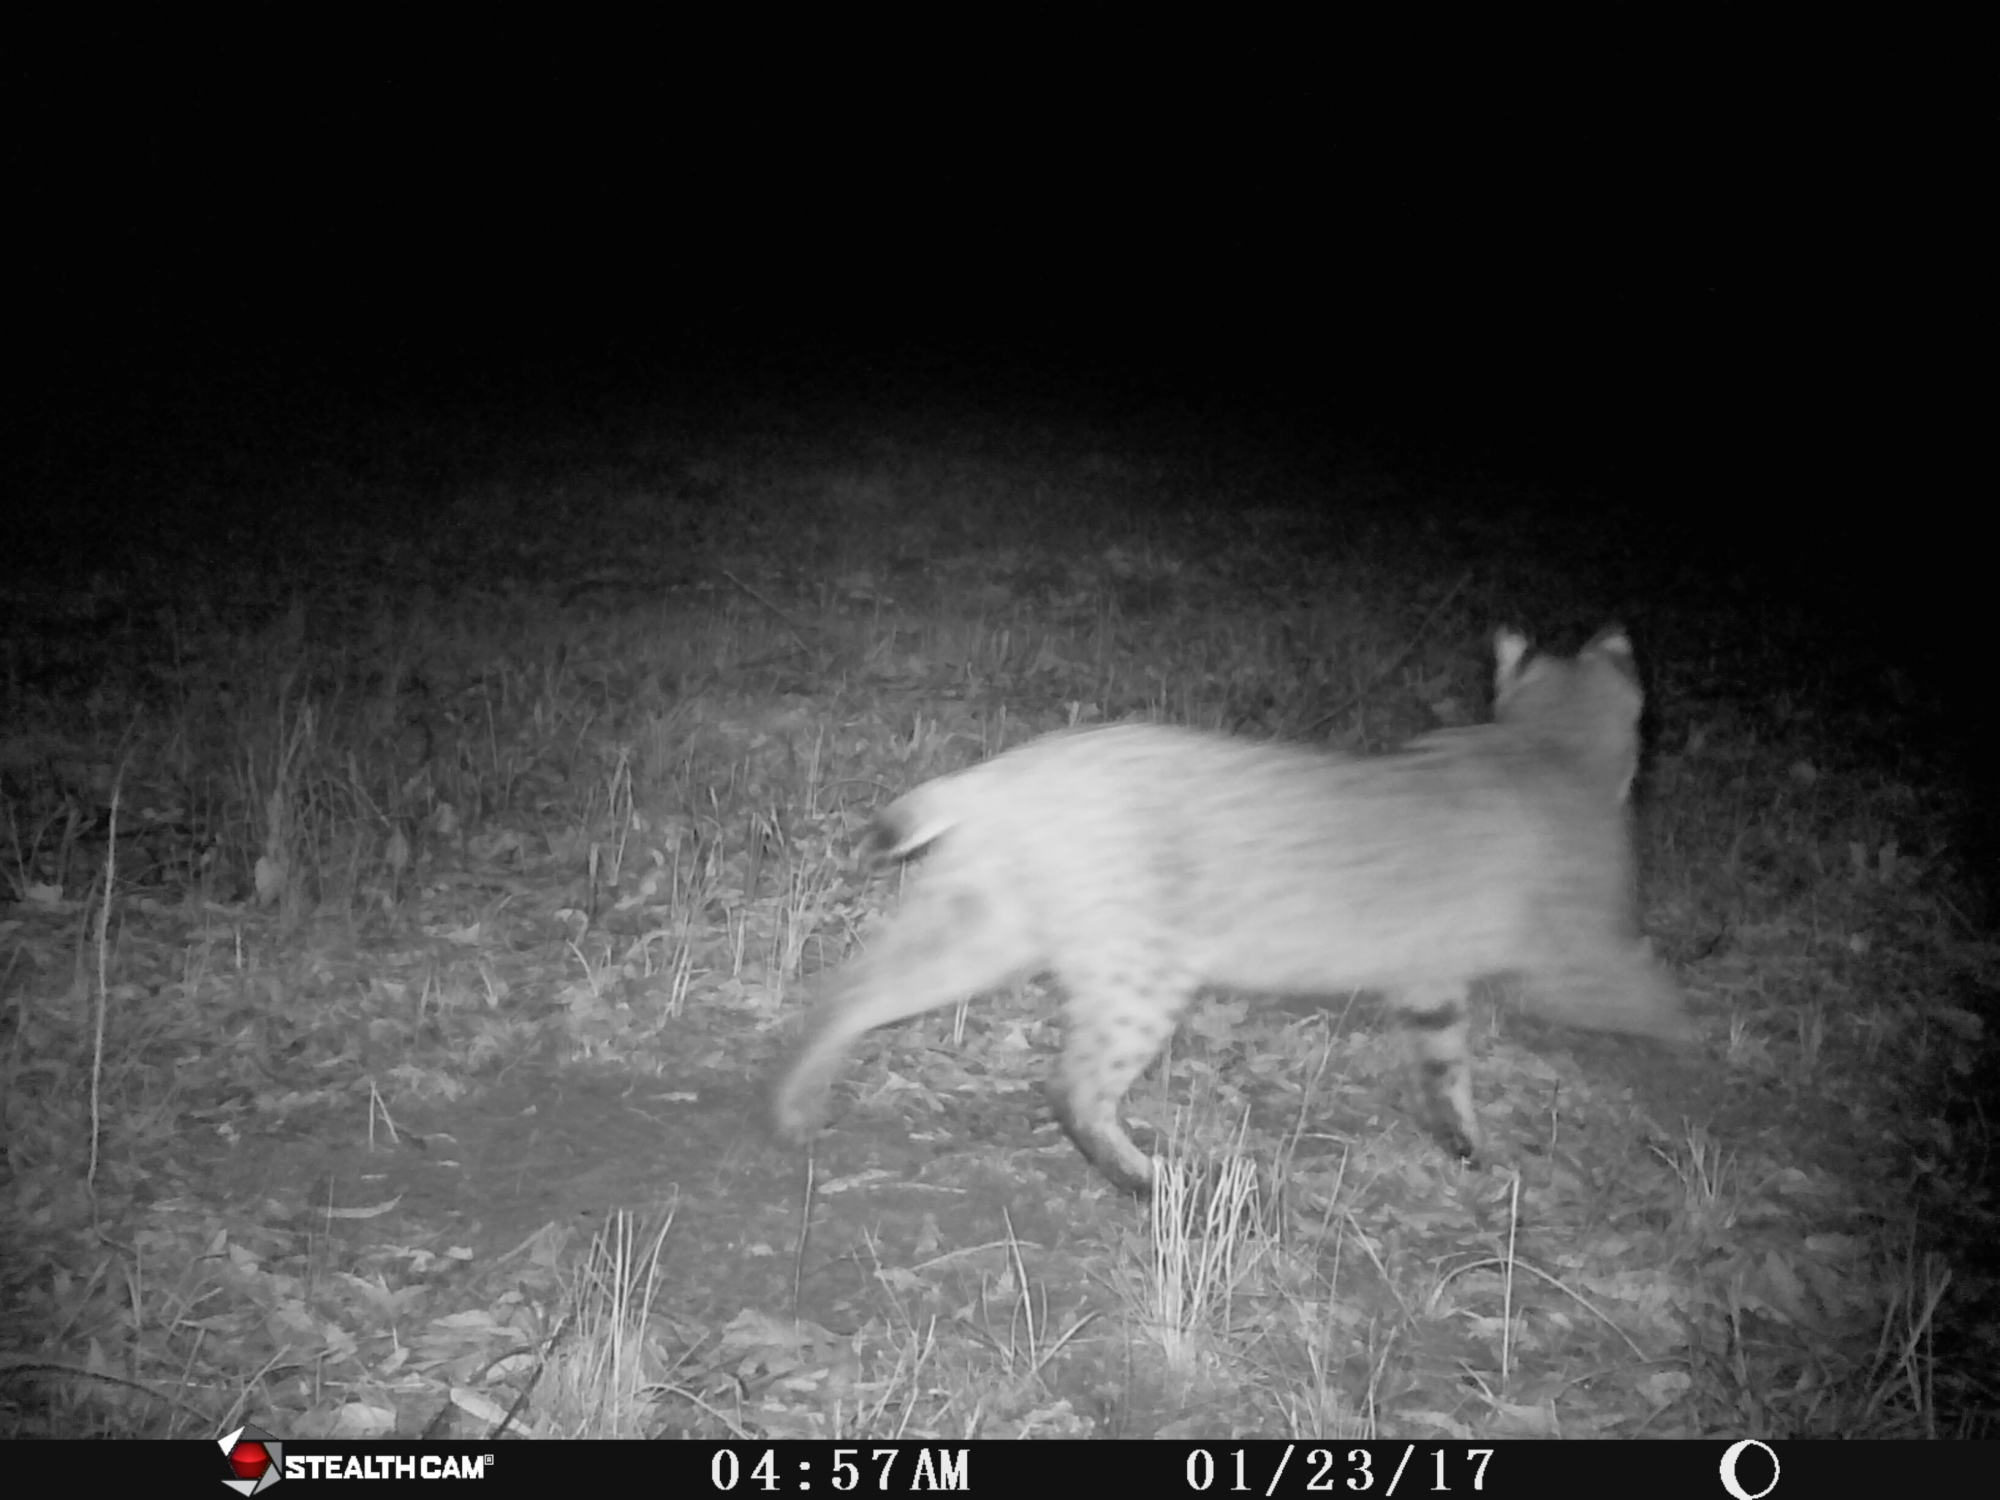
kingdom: Animalia
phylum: Chordata
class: Mammalia
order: Carnivora
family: Felidae
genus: Lynx
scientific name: Lynx rufus
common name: Bobcat
